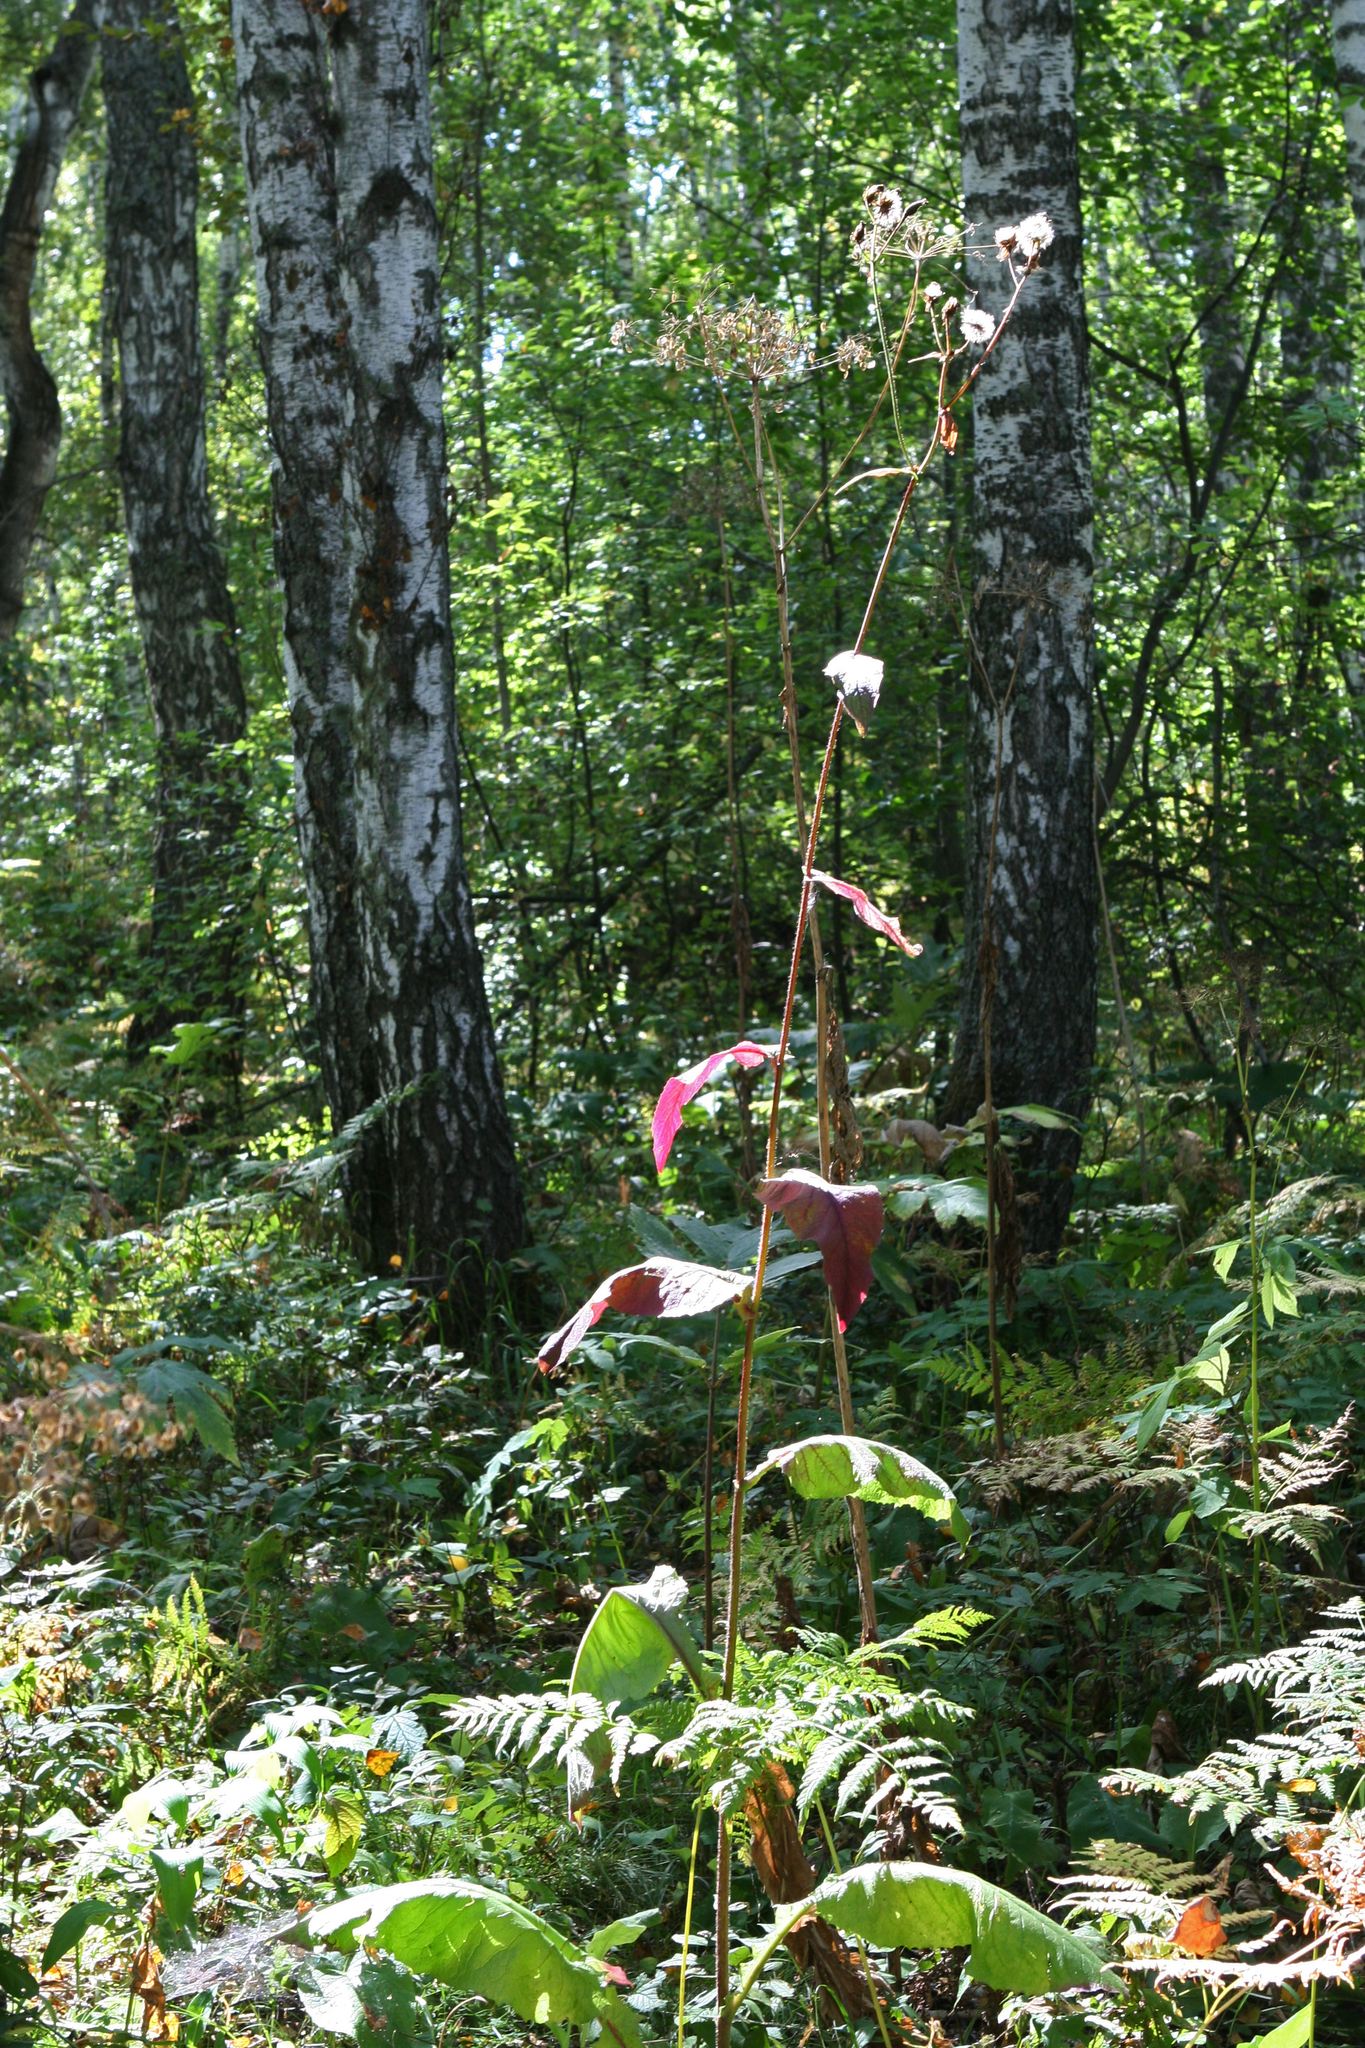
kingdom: Plantae
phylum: Tracheophyta
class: Magnoliopsida
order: Asterales
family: Asteraceae
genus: Crepis
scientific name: Crepis sibirica
